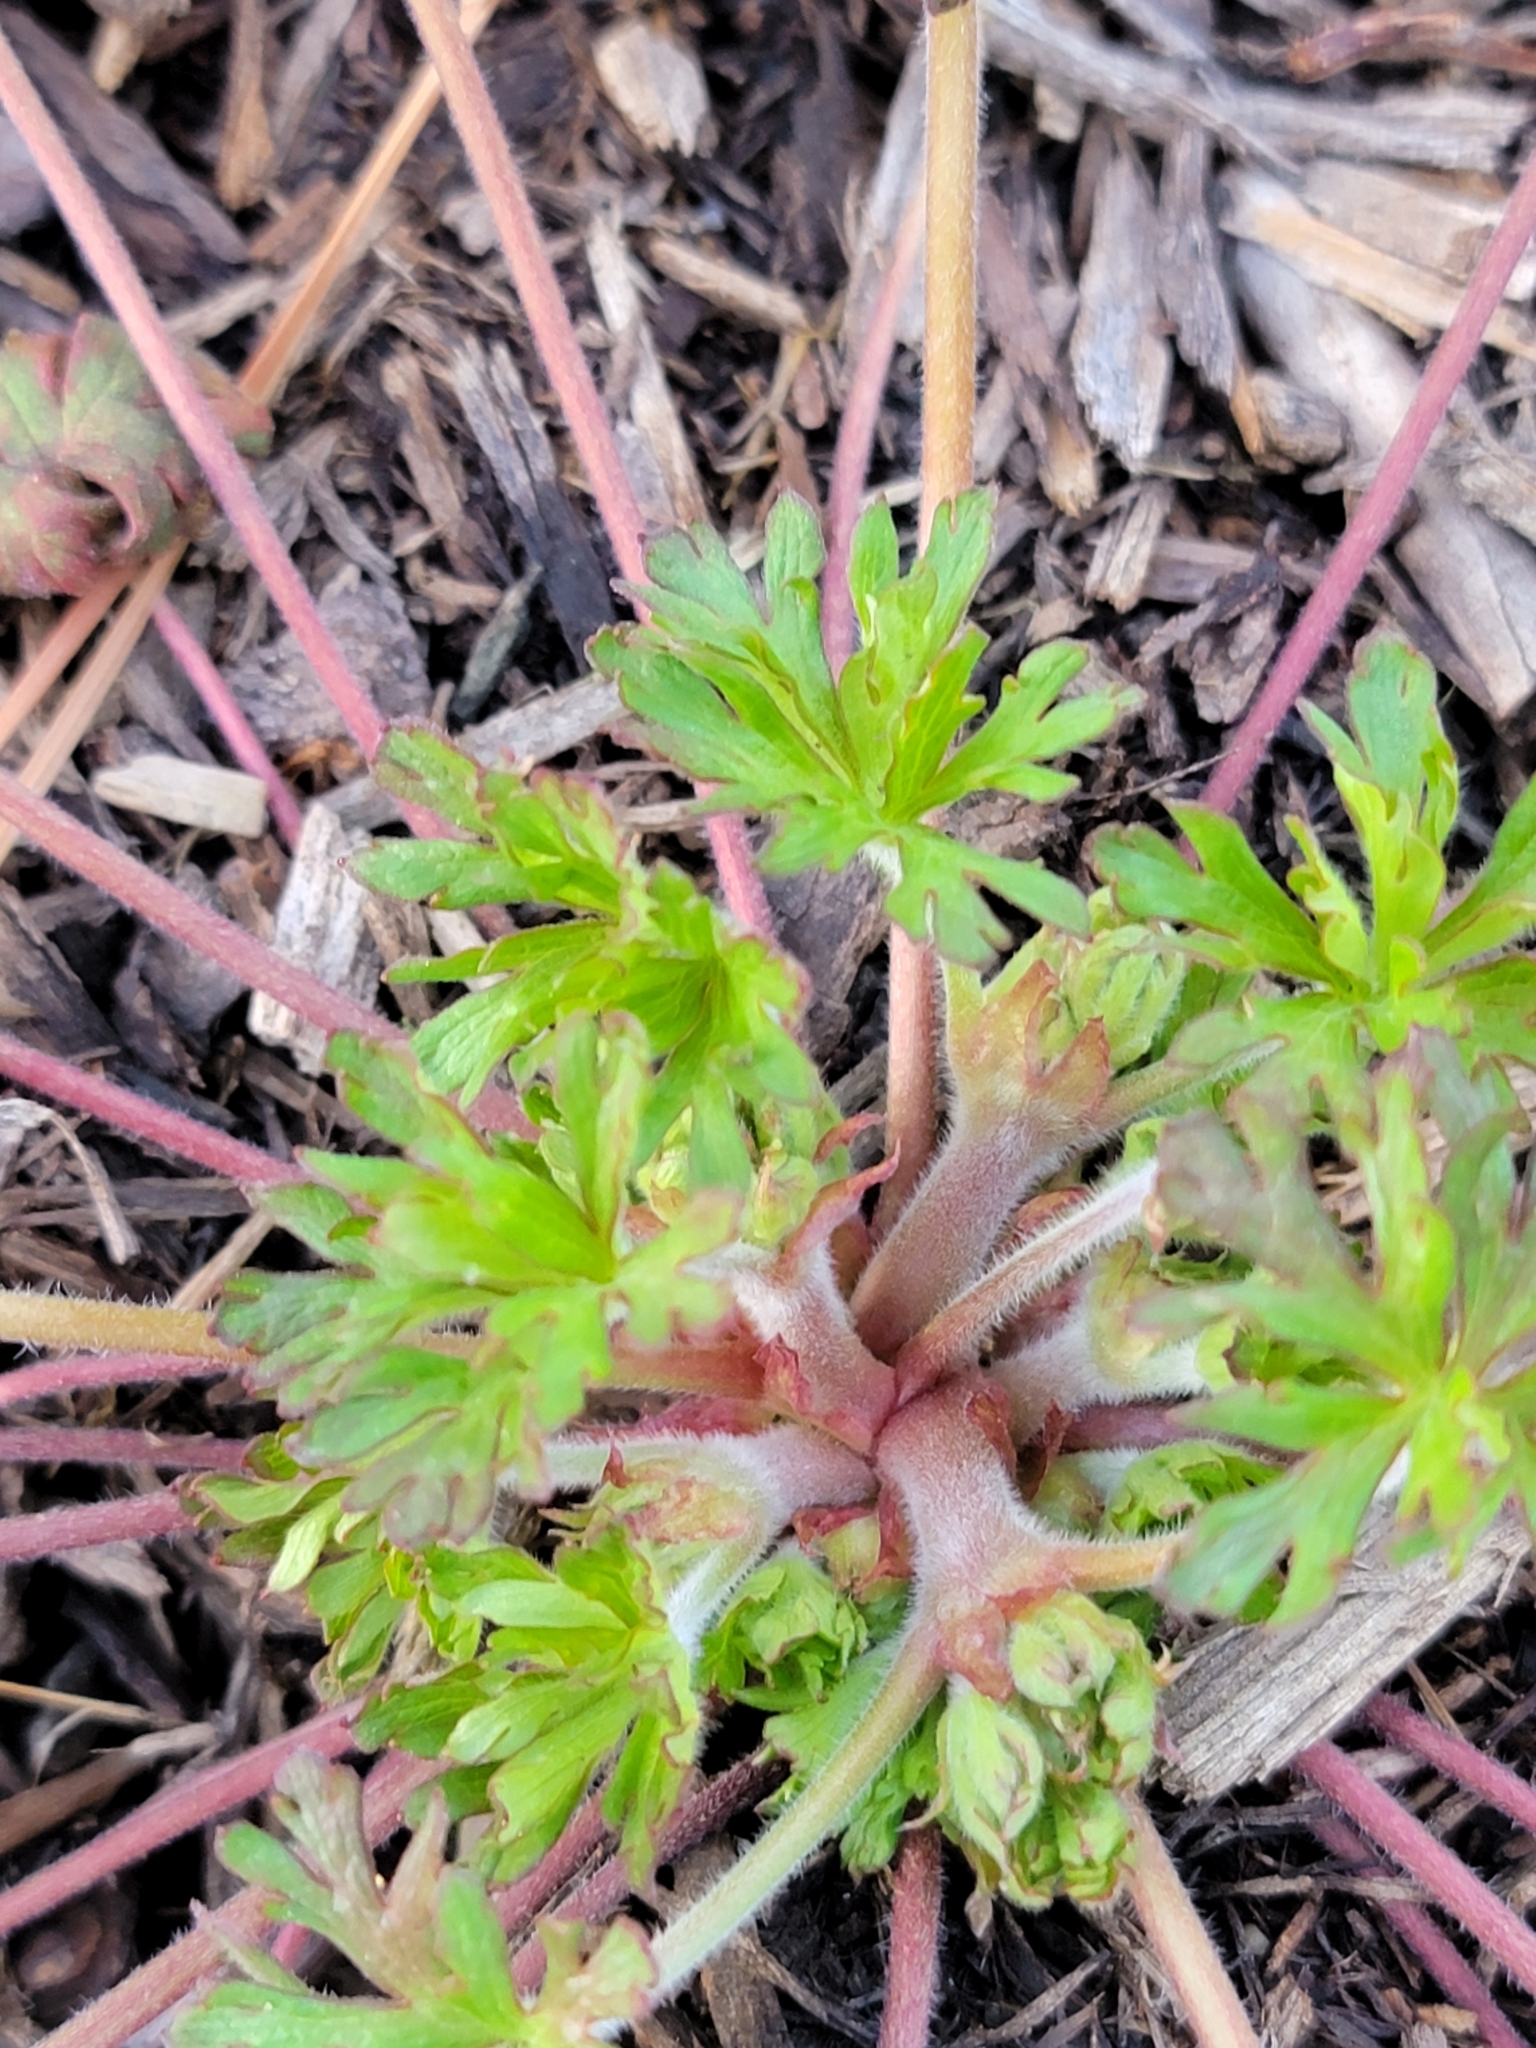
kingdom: Plantae
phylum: Tracheophyta
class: Magnoliopsida
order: Geraniales
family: Geraniaceae
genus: Geranium
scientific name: Geranium carolinianum
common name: Carolina crane's-bill
